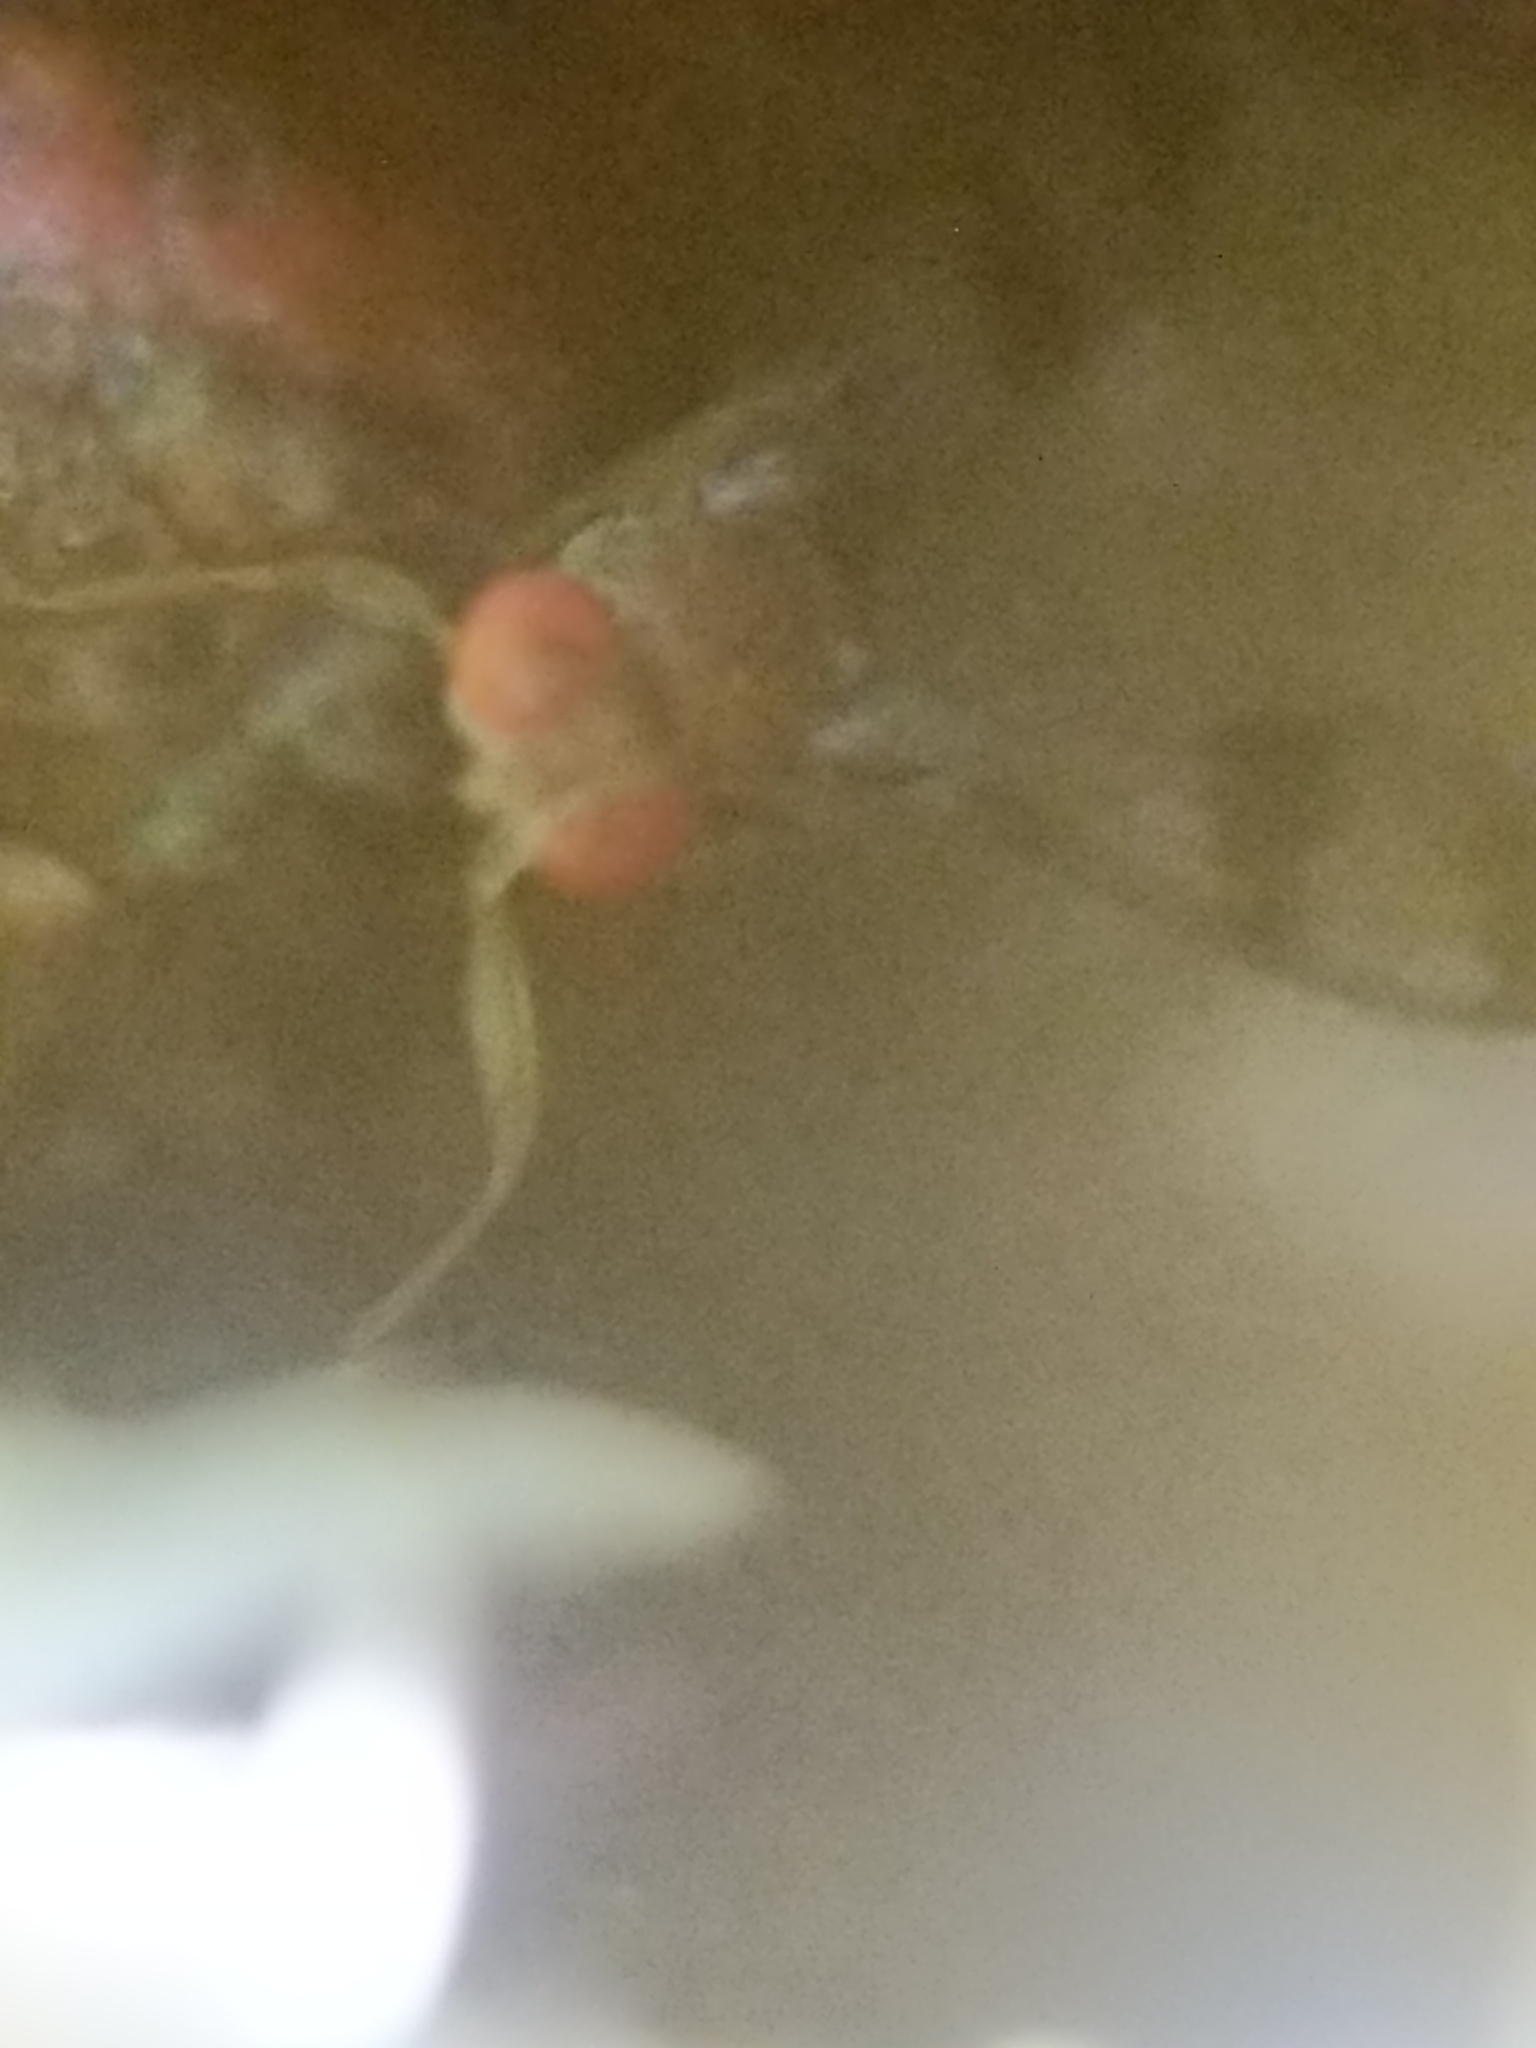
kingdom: Animalia
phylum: Arthropoda
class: Insecta
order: Diptera
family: Drosophilidae
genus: Chymomyza
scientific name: Chymomyza amoena
